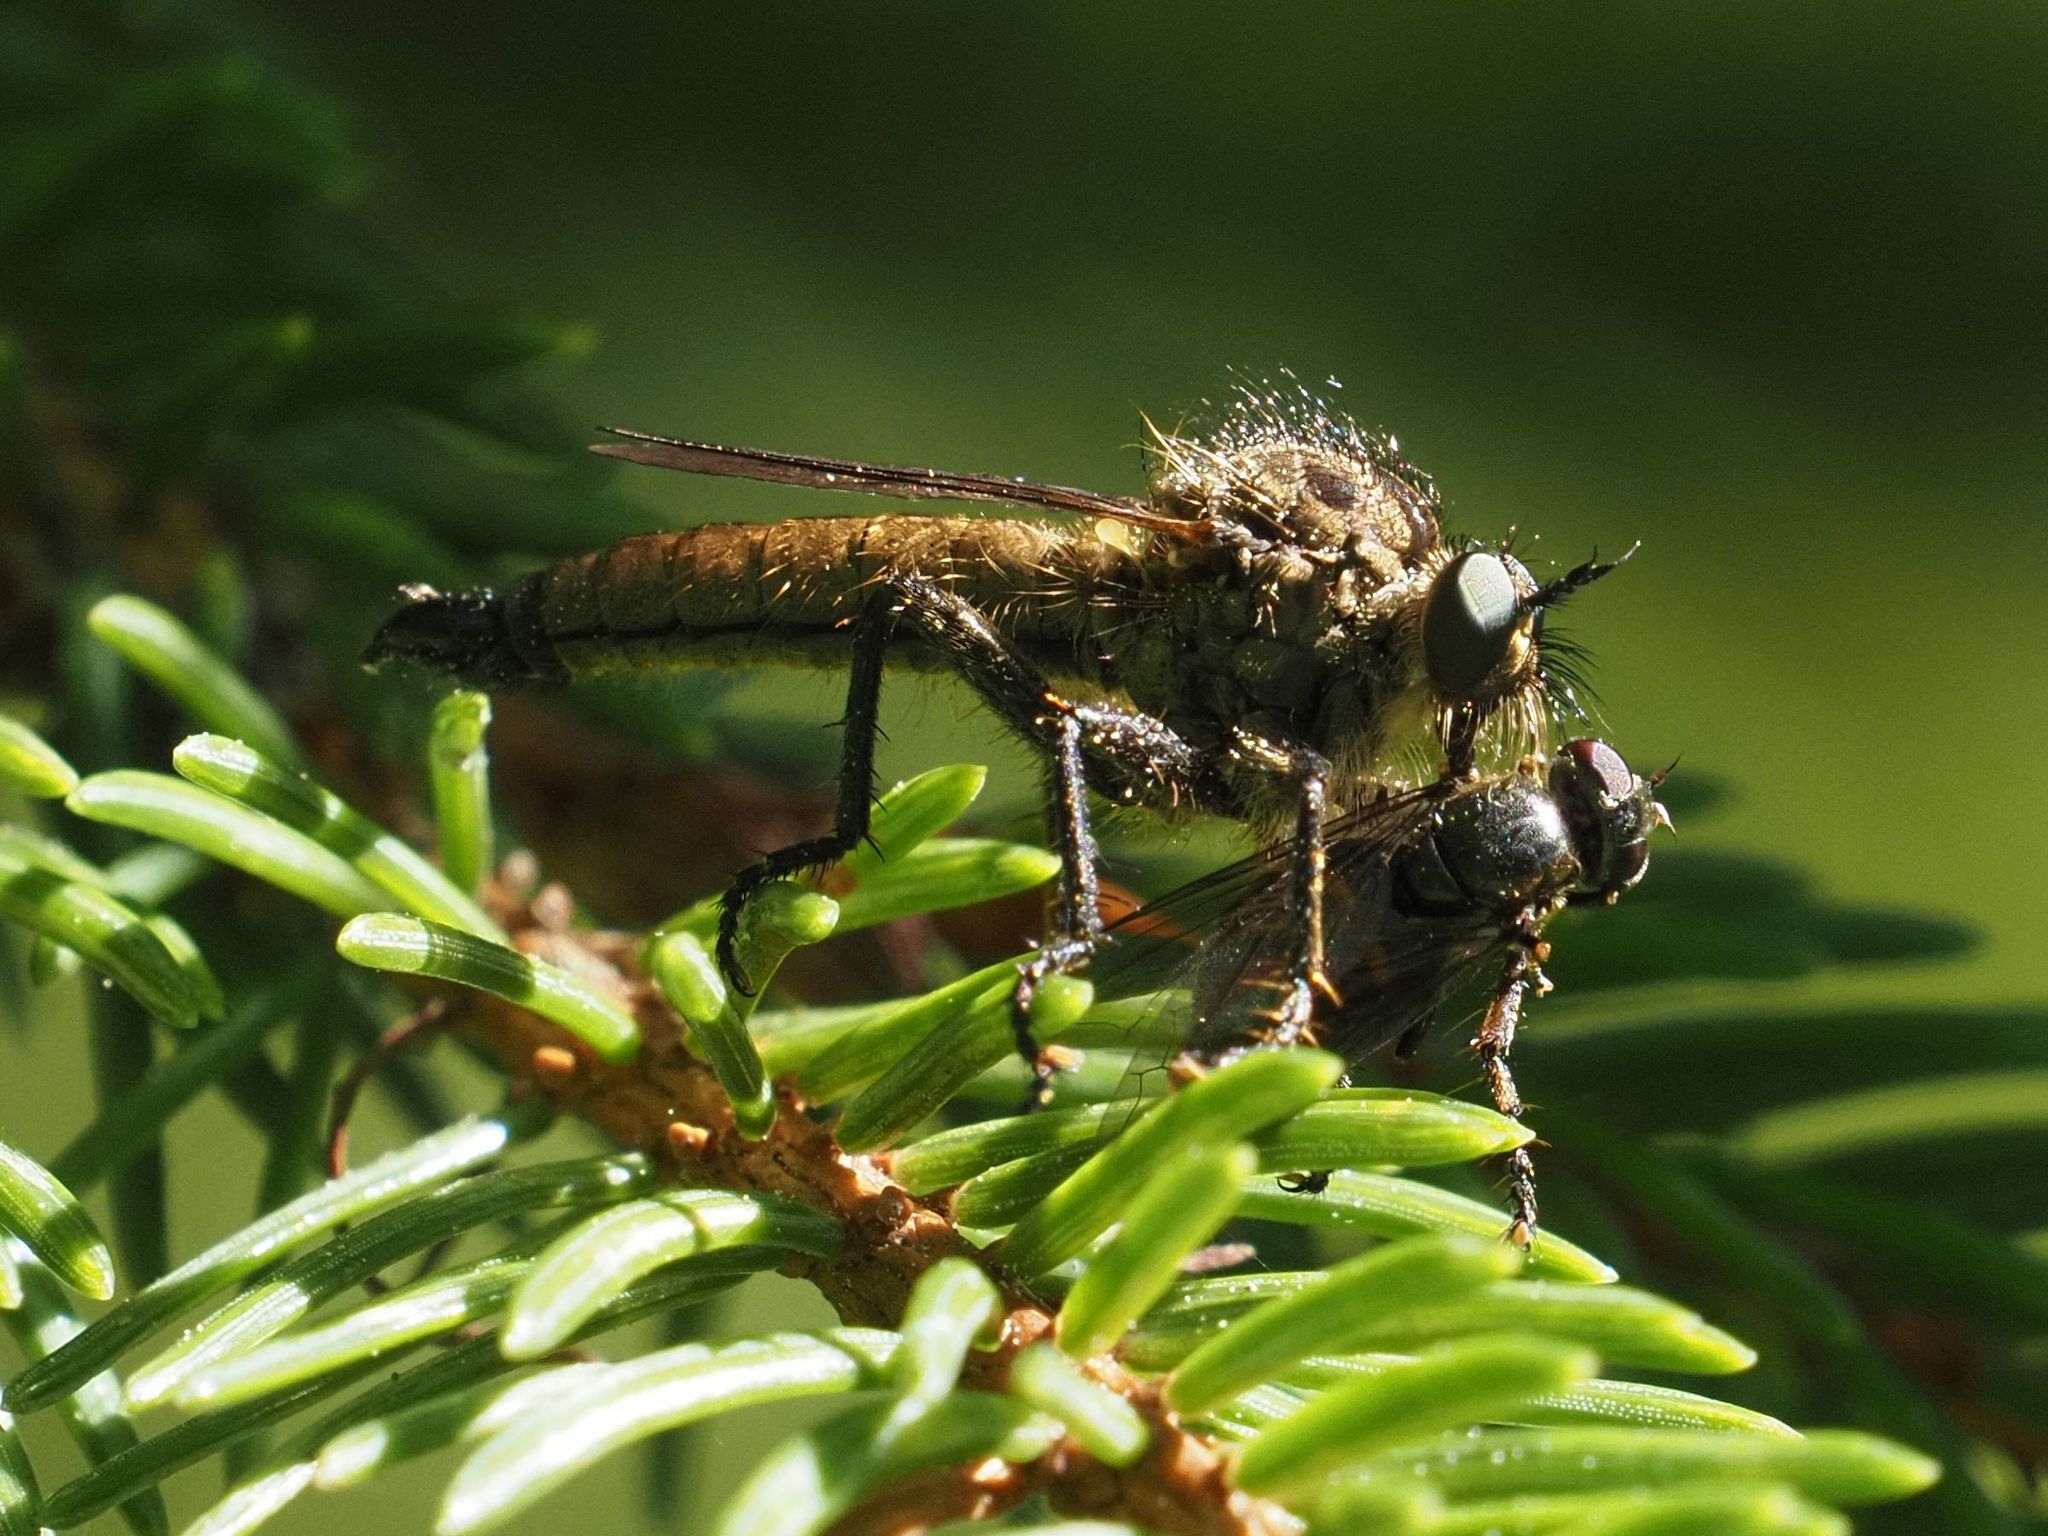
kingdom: Animalia
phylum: Arthropoda
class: Insecta
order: Diptera
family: Asilidae
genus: Didysmachus
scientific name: Didysmachus picipes
